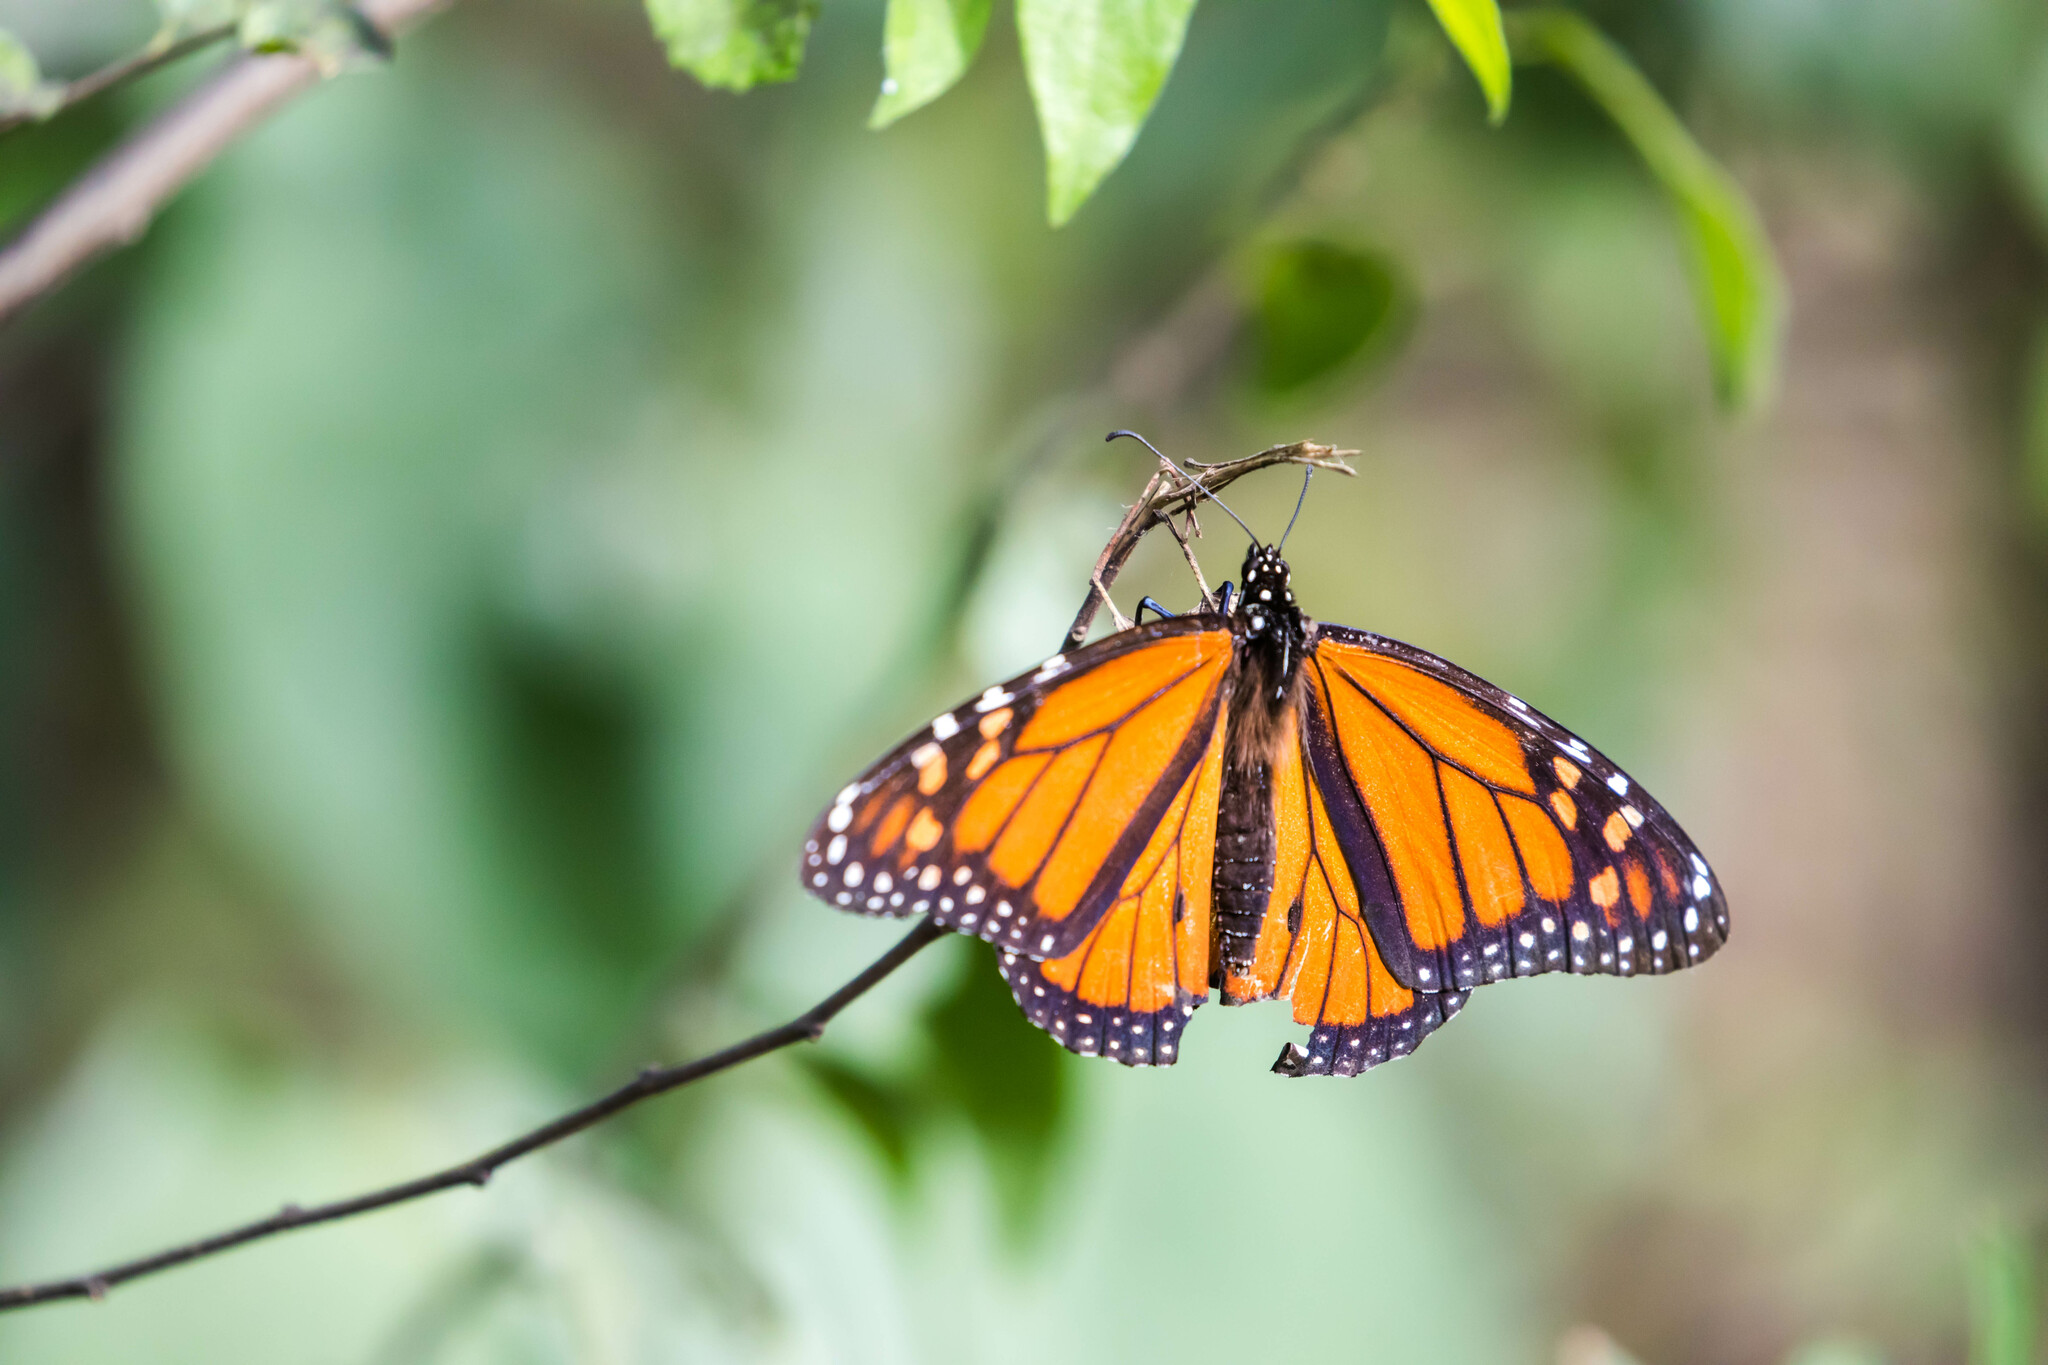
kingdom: Animalia
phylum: Arthropoda
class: Insecta
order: Lepidoptera
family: Nymphalidae
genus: Danaus
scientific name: Danaus plexippus
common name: Monarch
